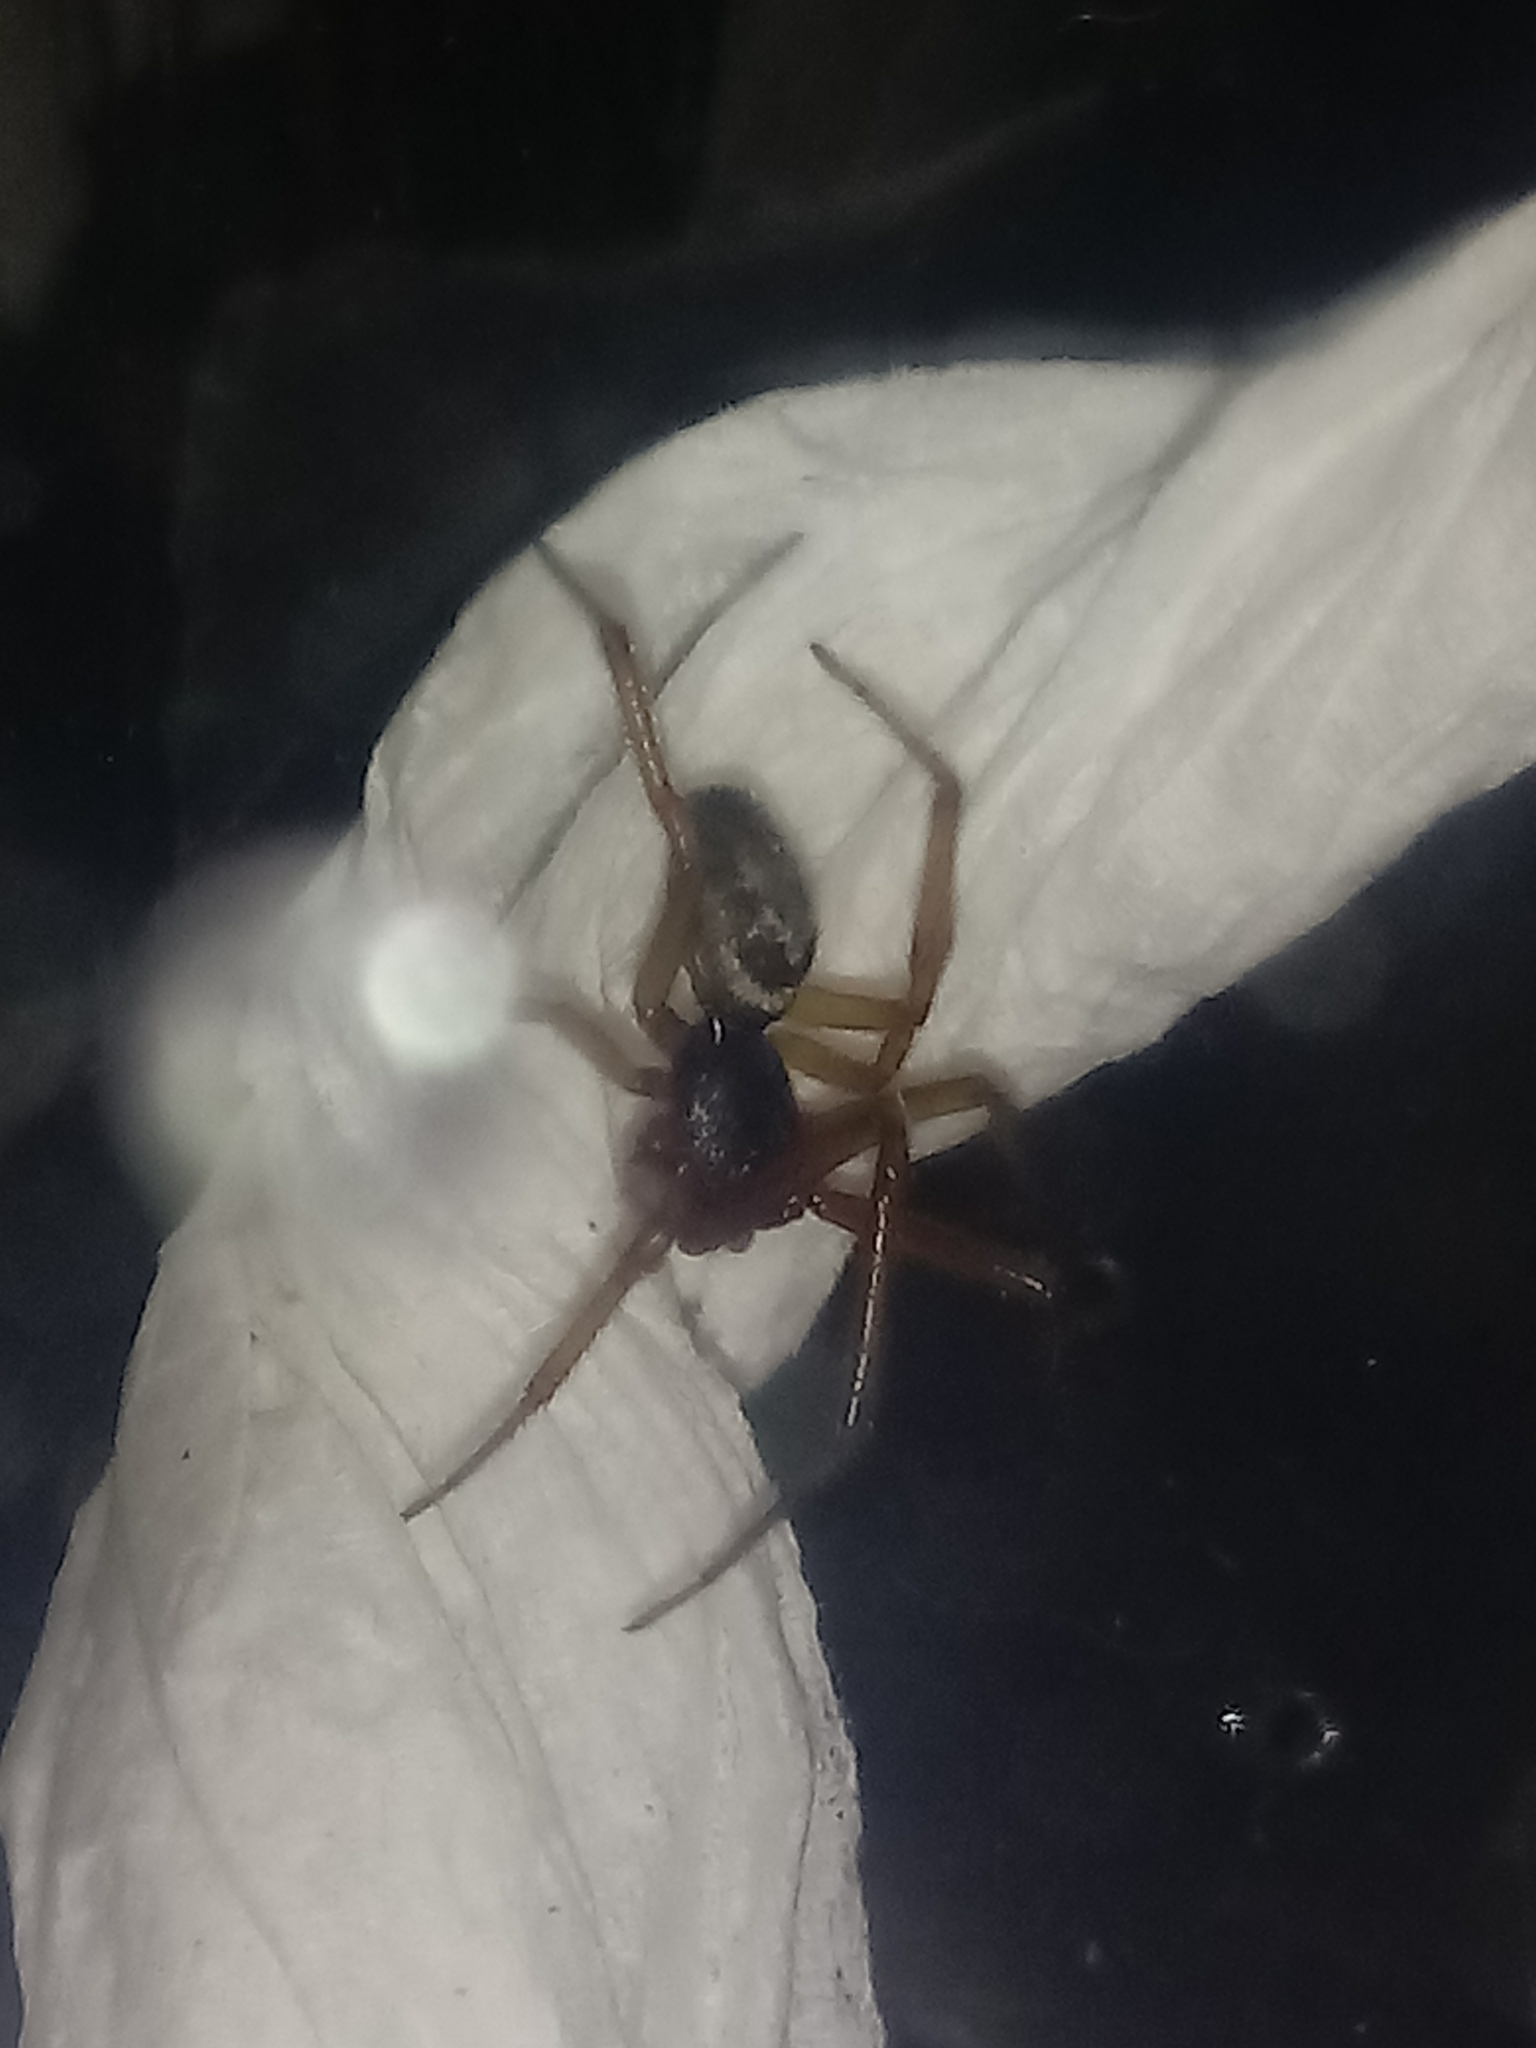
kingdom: Animalia
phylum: Arthropoda
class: Arachnida
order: Araneae
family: Theridiidae
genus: Steatoda
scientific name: Steatoda nobilis
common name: Cobweb weaver
